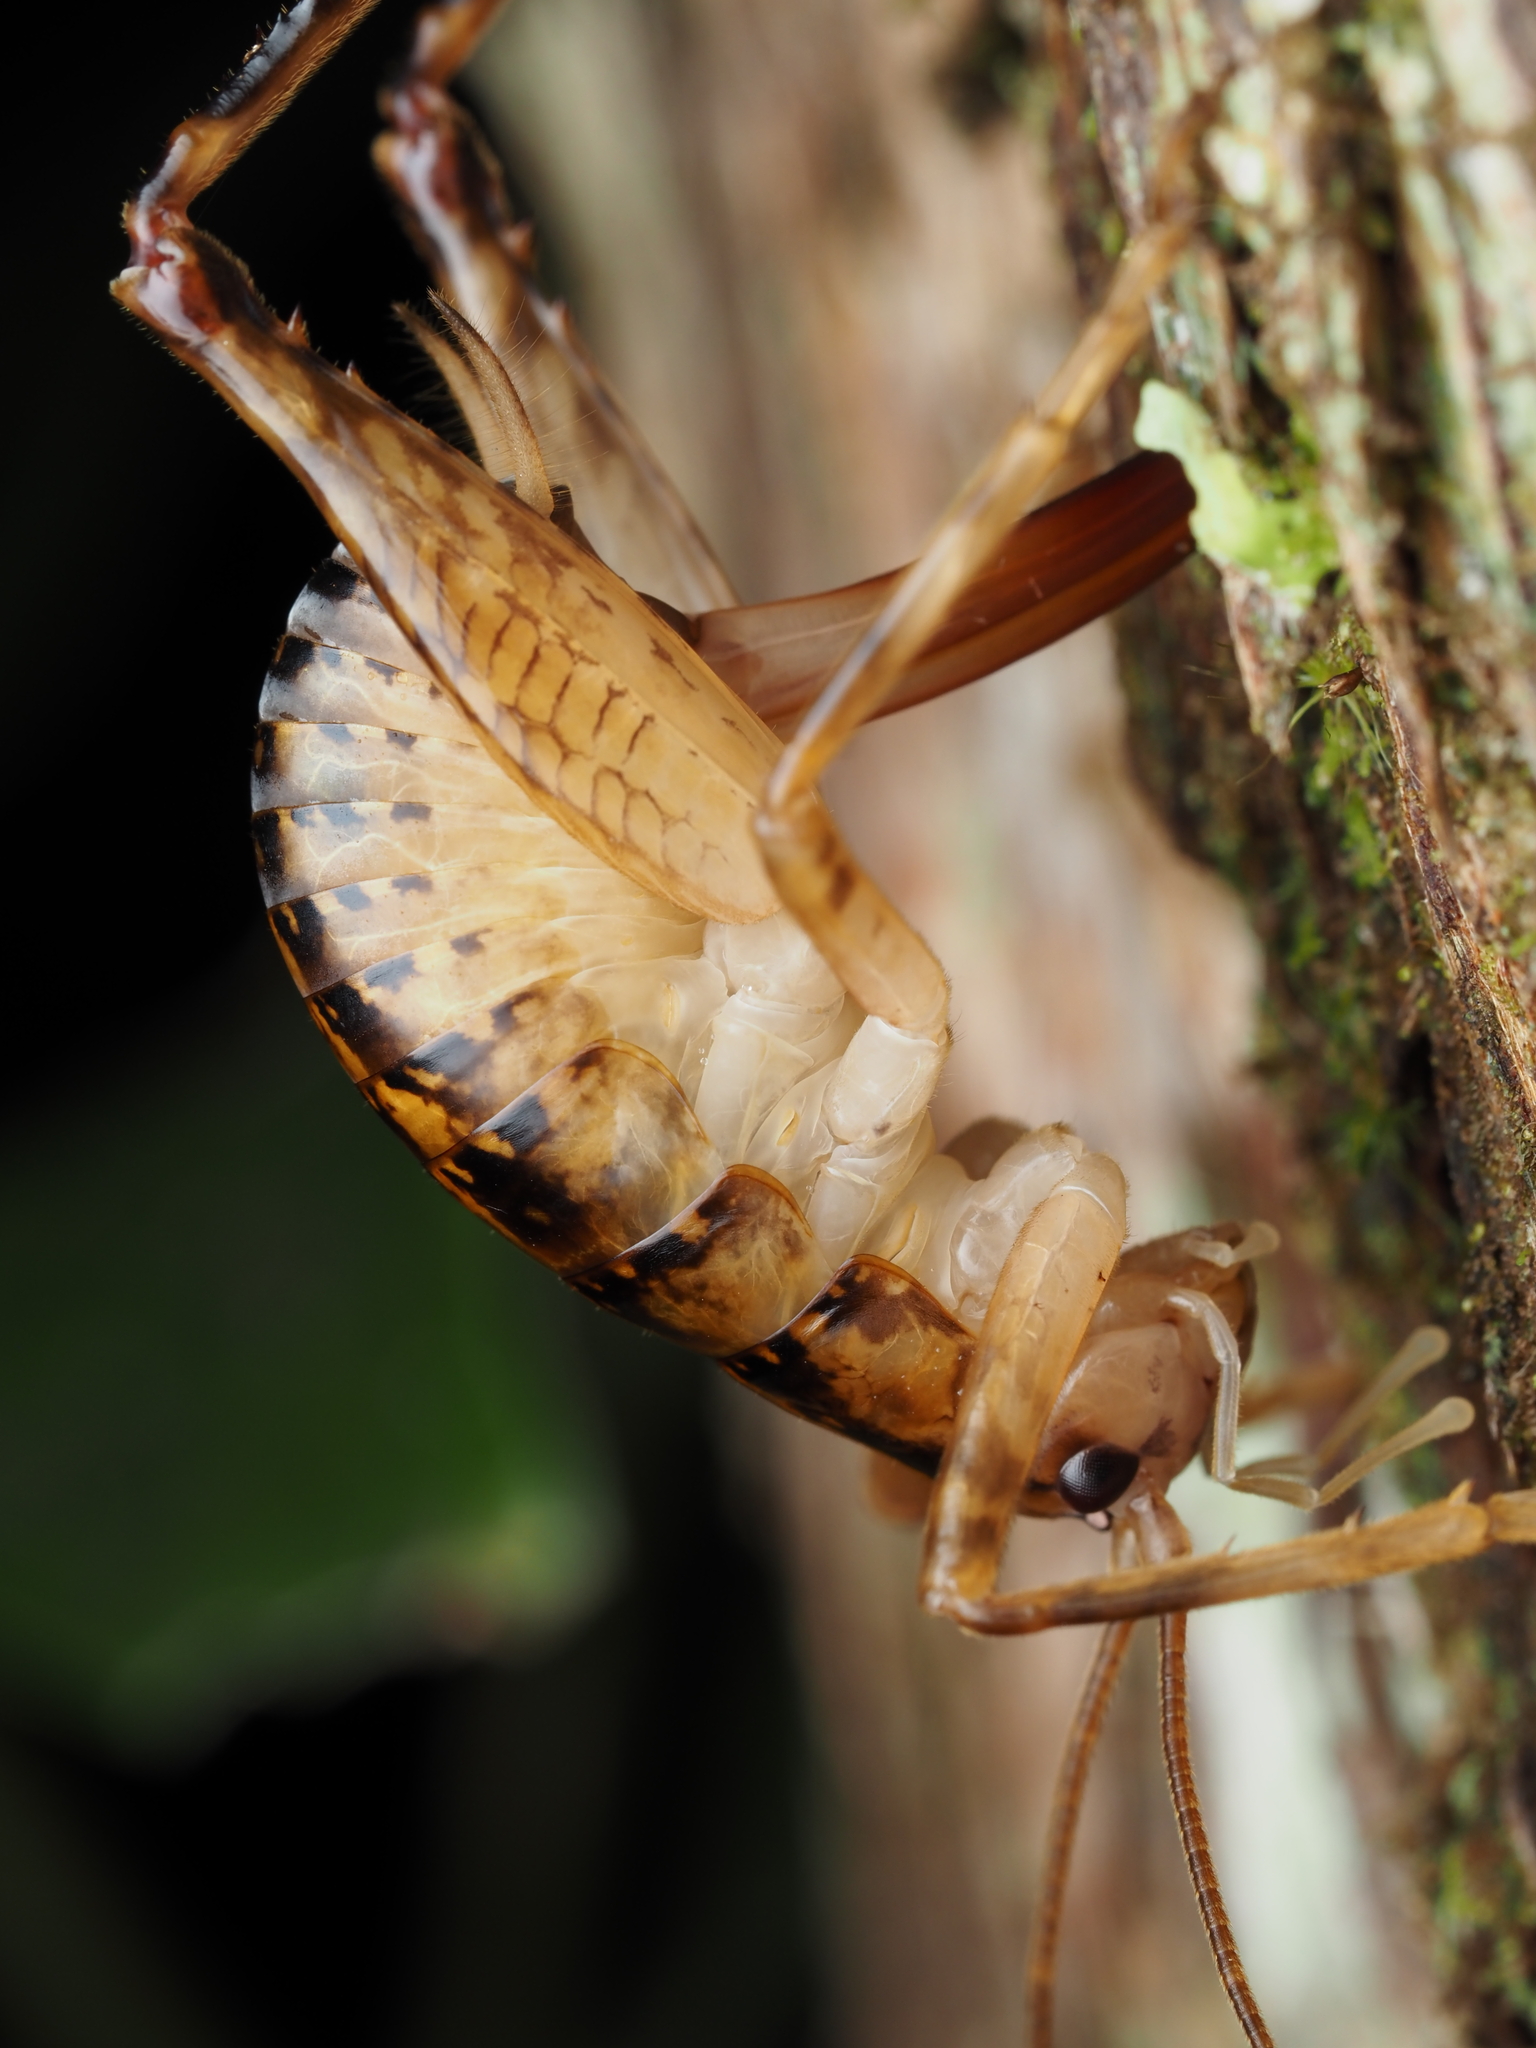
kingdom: Animalia
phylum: Arthropoda
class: Insecta
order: Orthoptera
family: Rhaphidophoridae
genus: Talitropsis
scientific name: Talitropsis sedilloti
